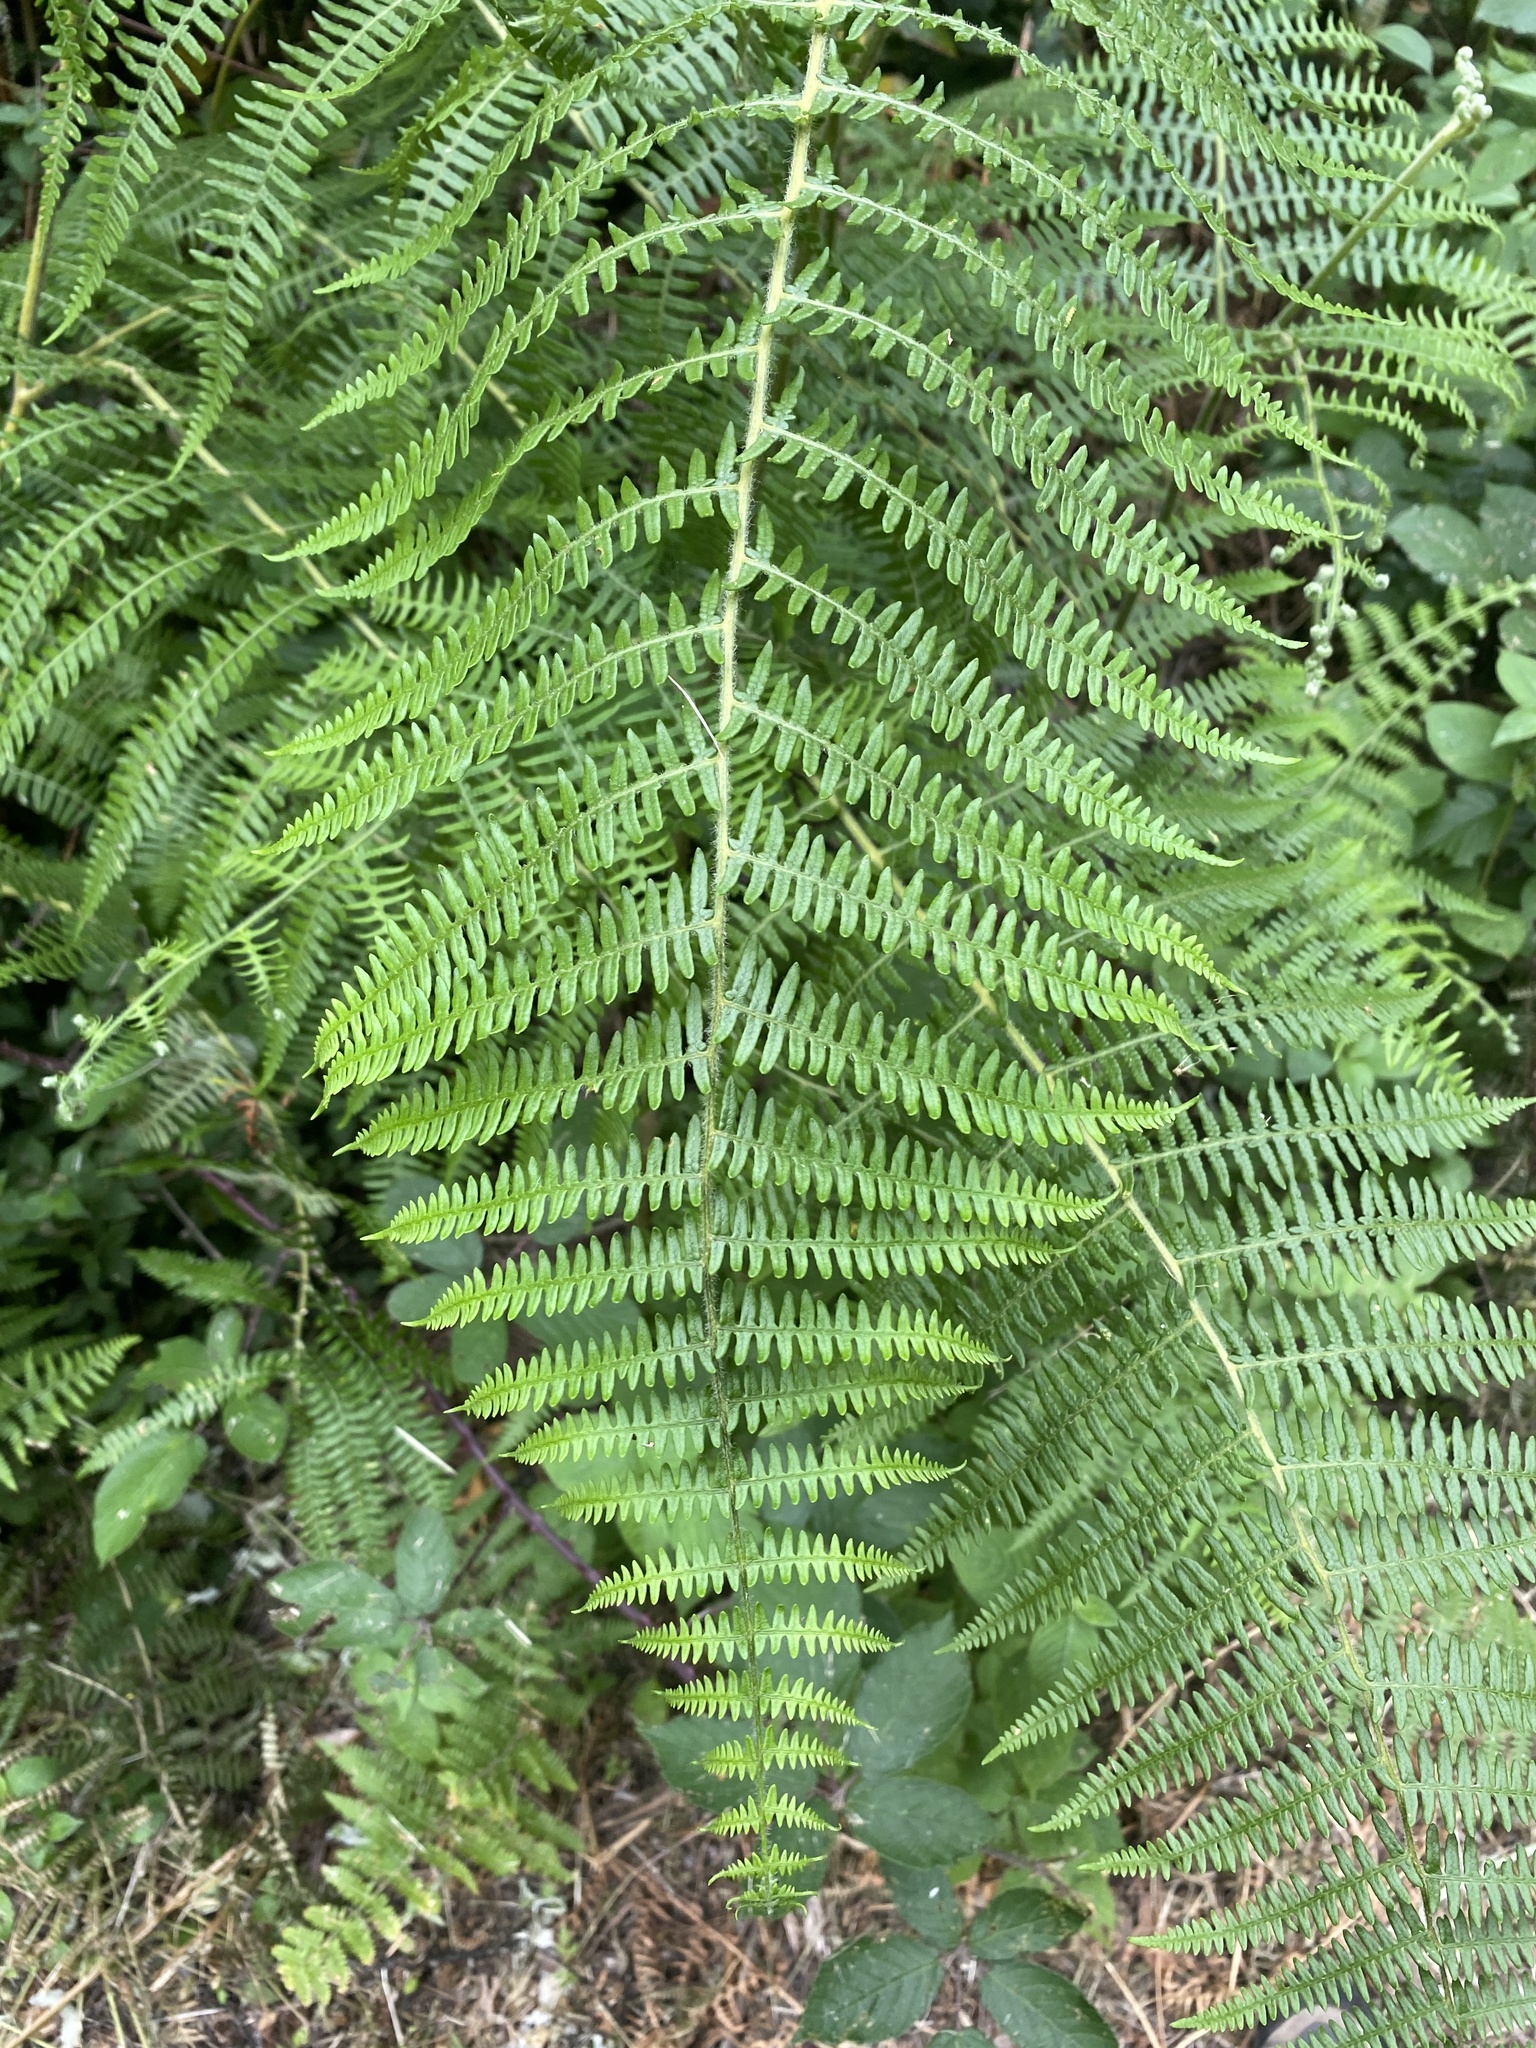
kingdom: Plantae
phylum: Tracheophyta
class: Polypodiopsida
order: Polypodiales
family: Dennstaedtiaceae
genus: Pteridium
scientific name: Pteridium aquilinum
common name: Bracken
